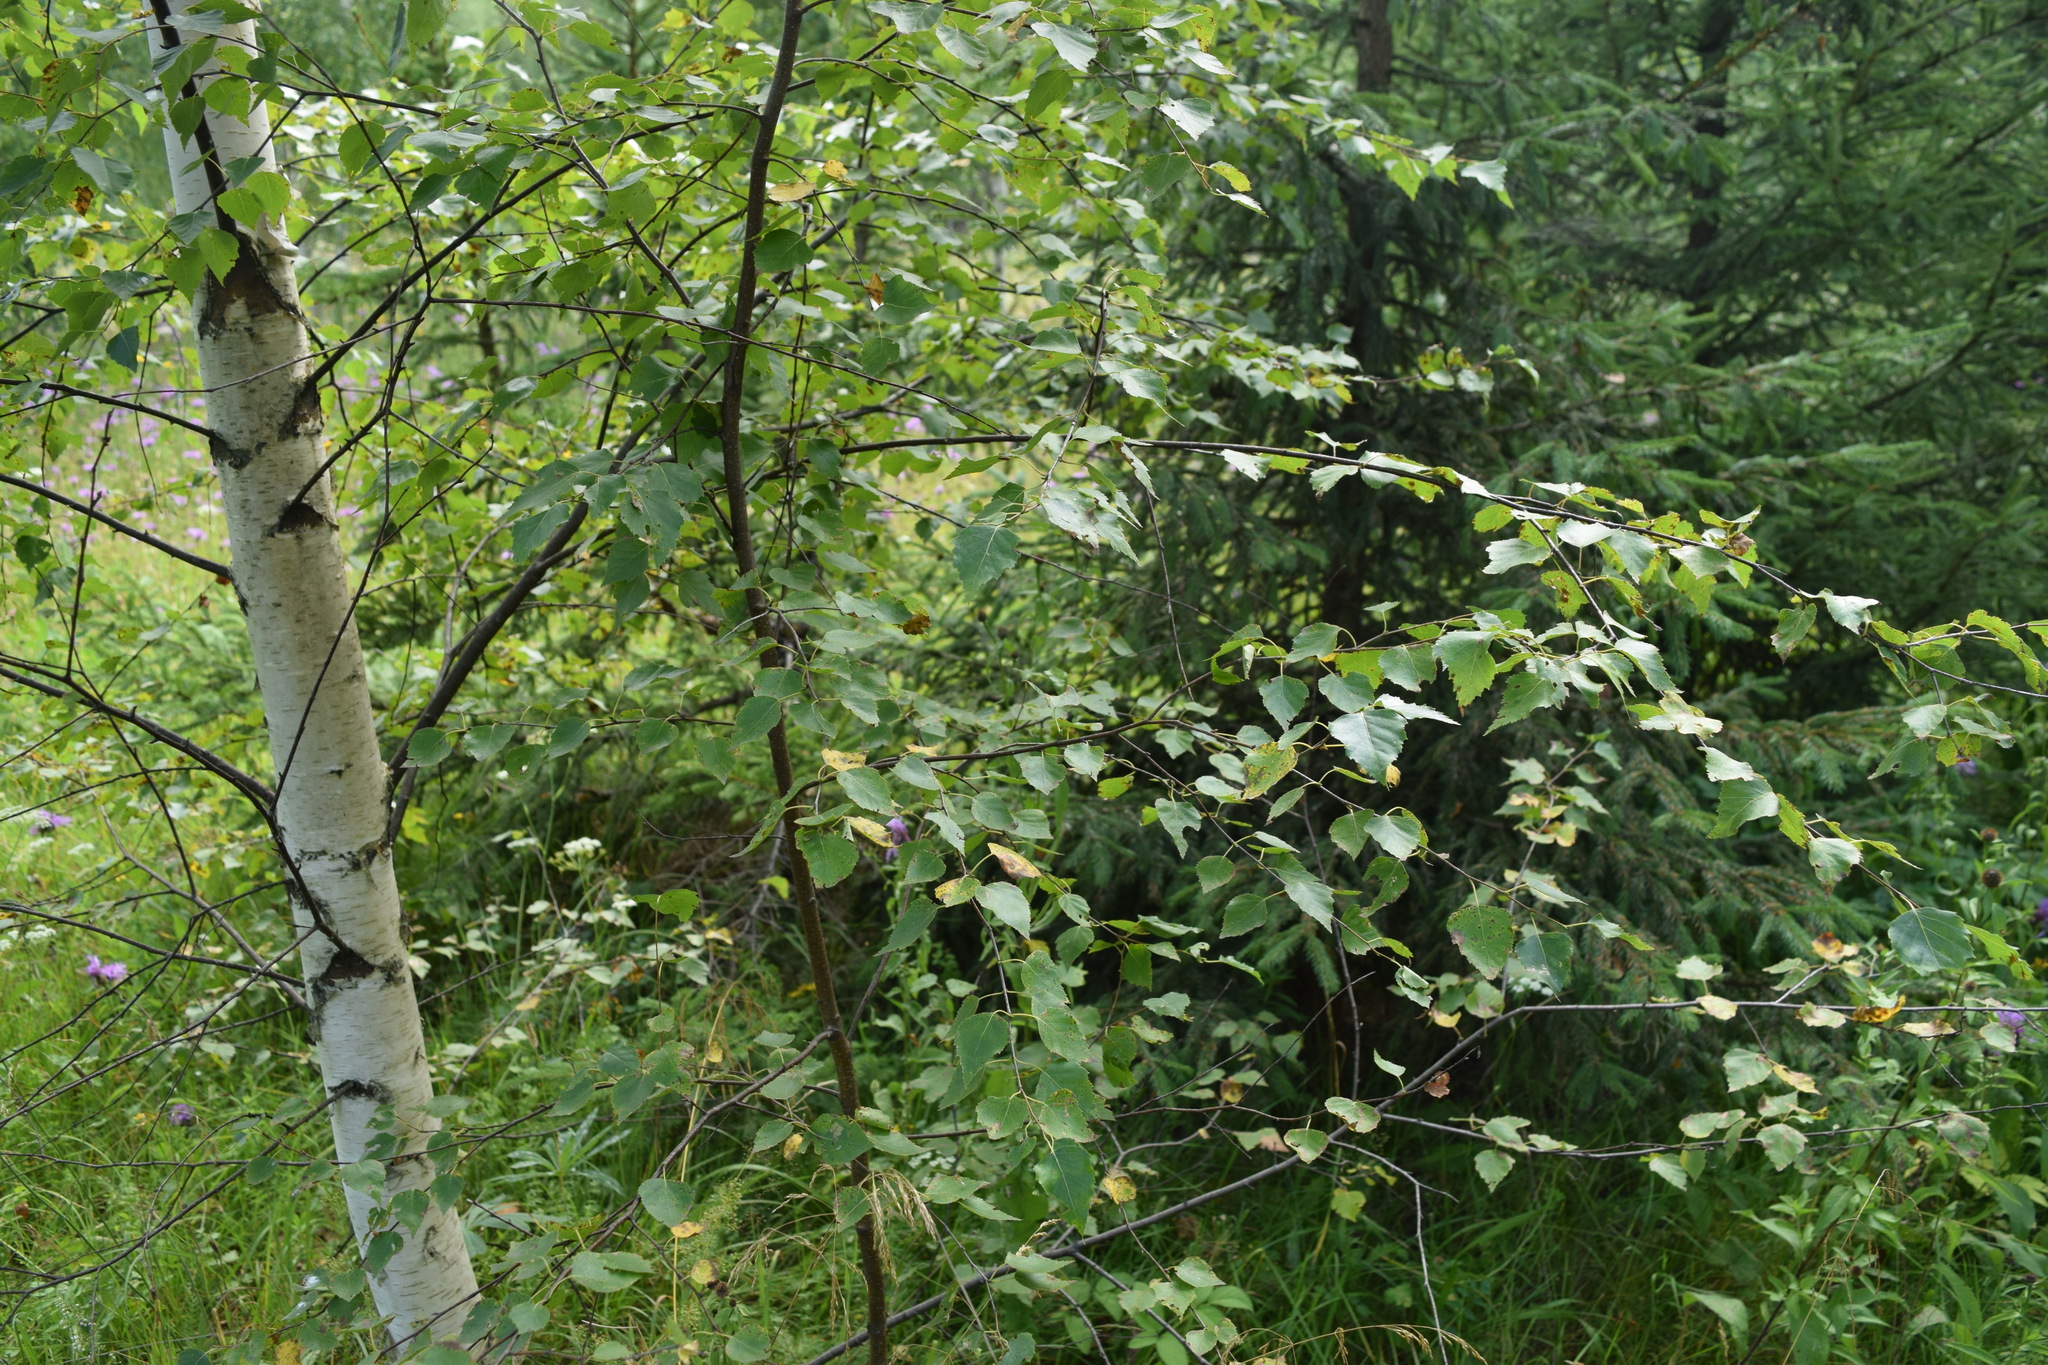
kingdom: Plantae
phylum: Tracheophyta
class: Magnoliopsida
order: Fagales
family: Betulaceae
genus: Betula
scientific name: Betula pendula
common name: Silver birch
